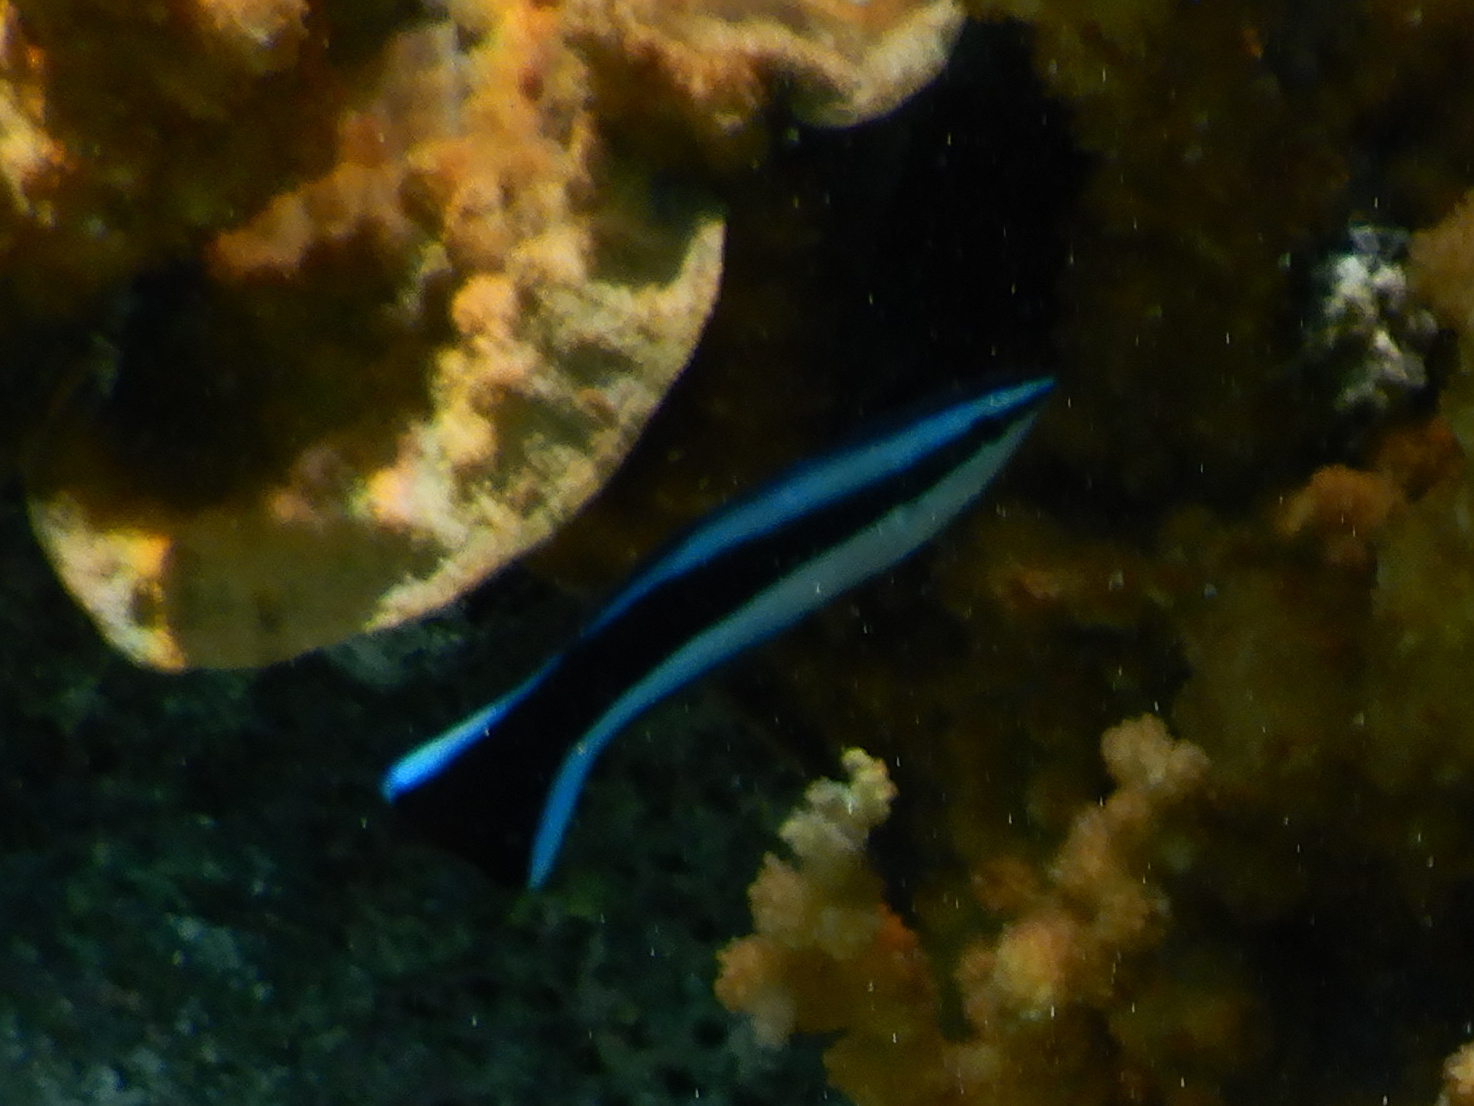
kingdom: Animalia
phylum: Chordata
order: Perciformes
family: Labridae
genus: Labroides
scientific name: Labroides dimidiatus
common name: Blue diesel wrasse
